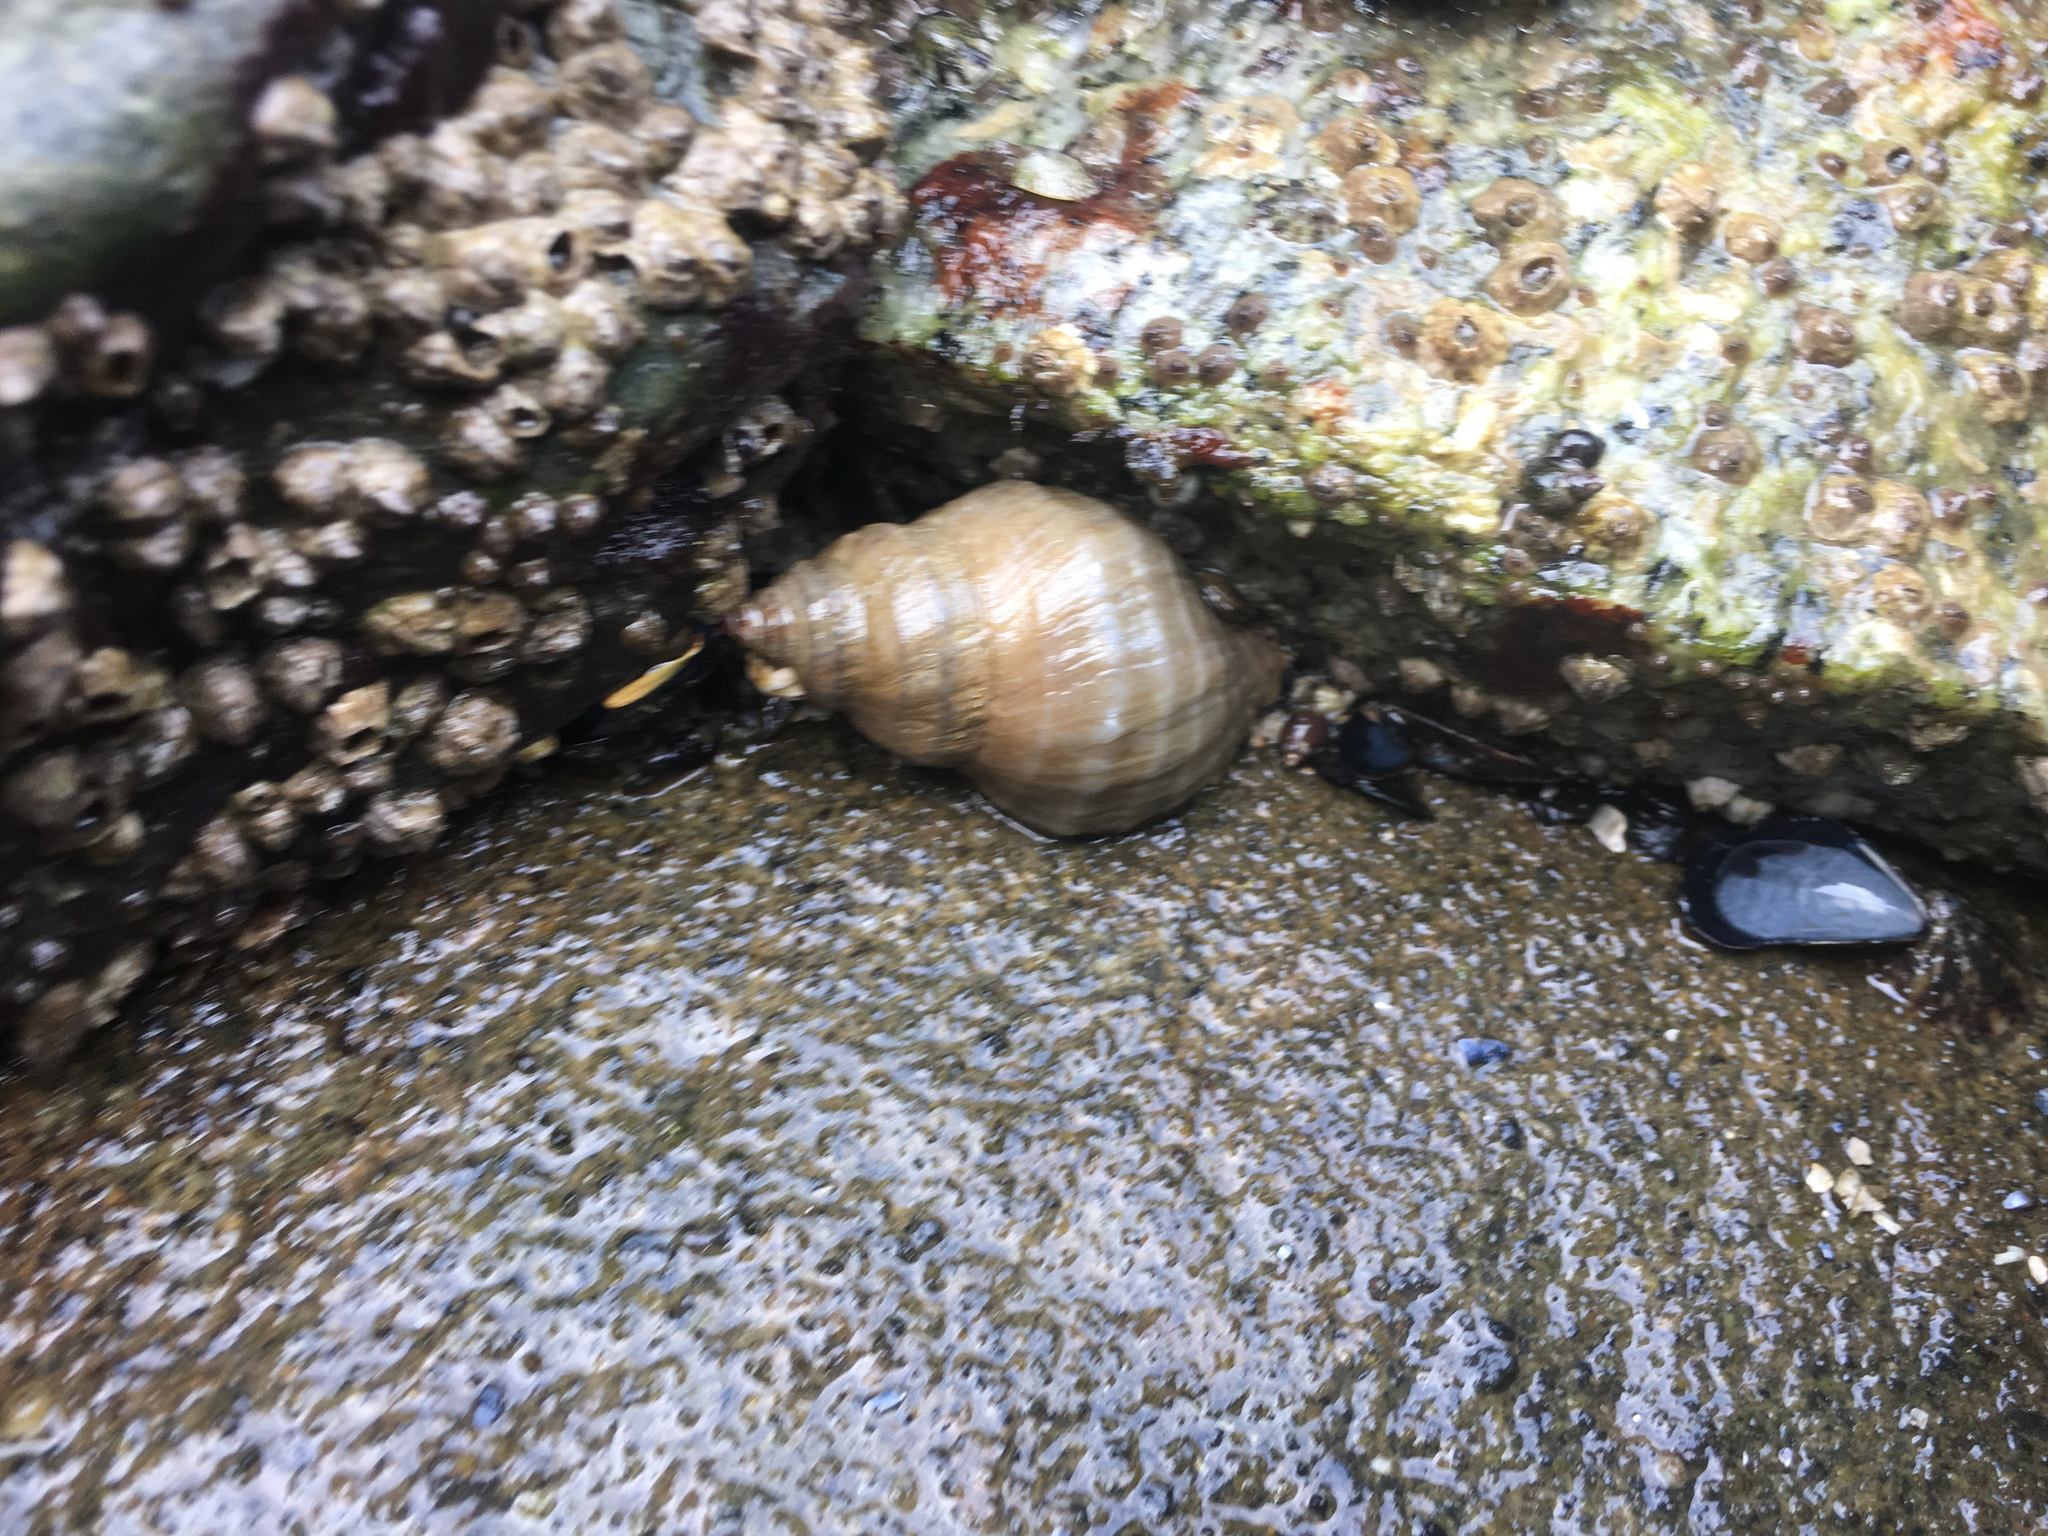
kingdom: Animalia
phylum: Mollusca
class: Gastropoda
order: Neogastropoda
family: Muricidae
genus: Nucella
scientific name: Nucella lamellosa
